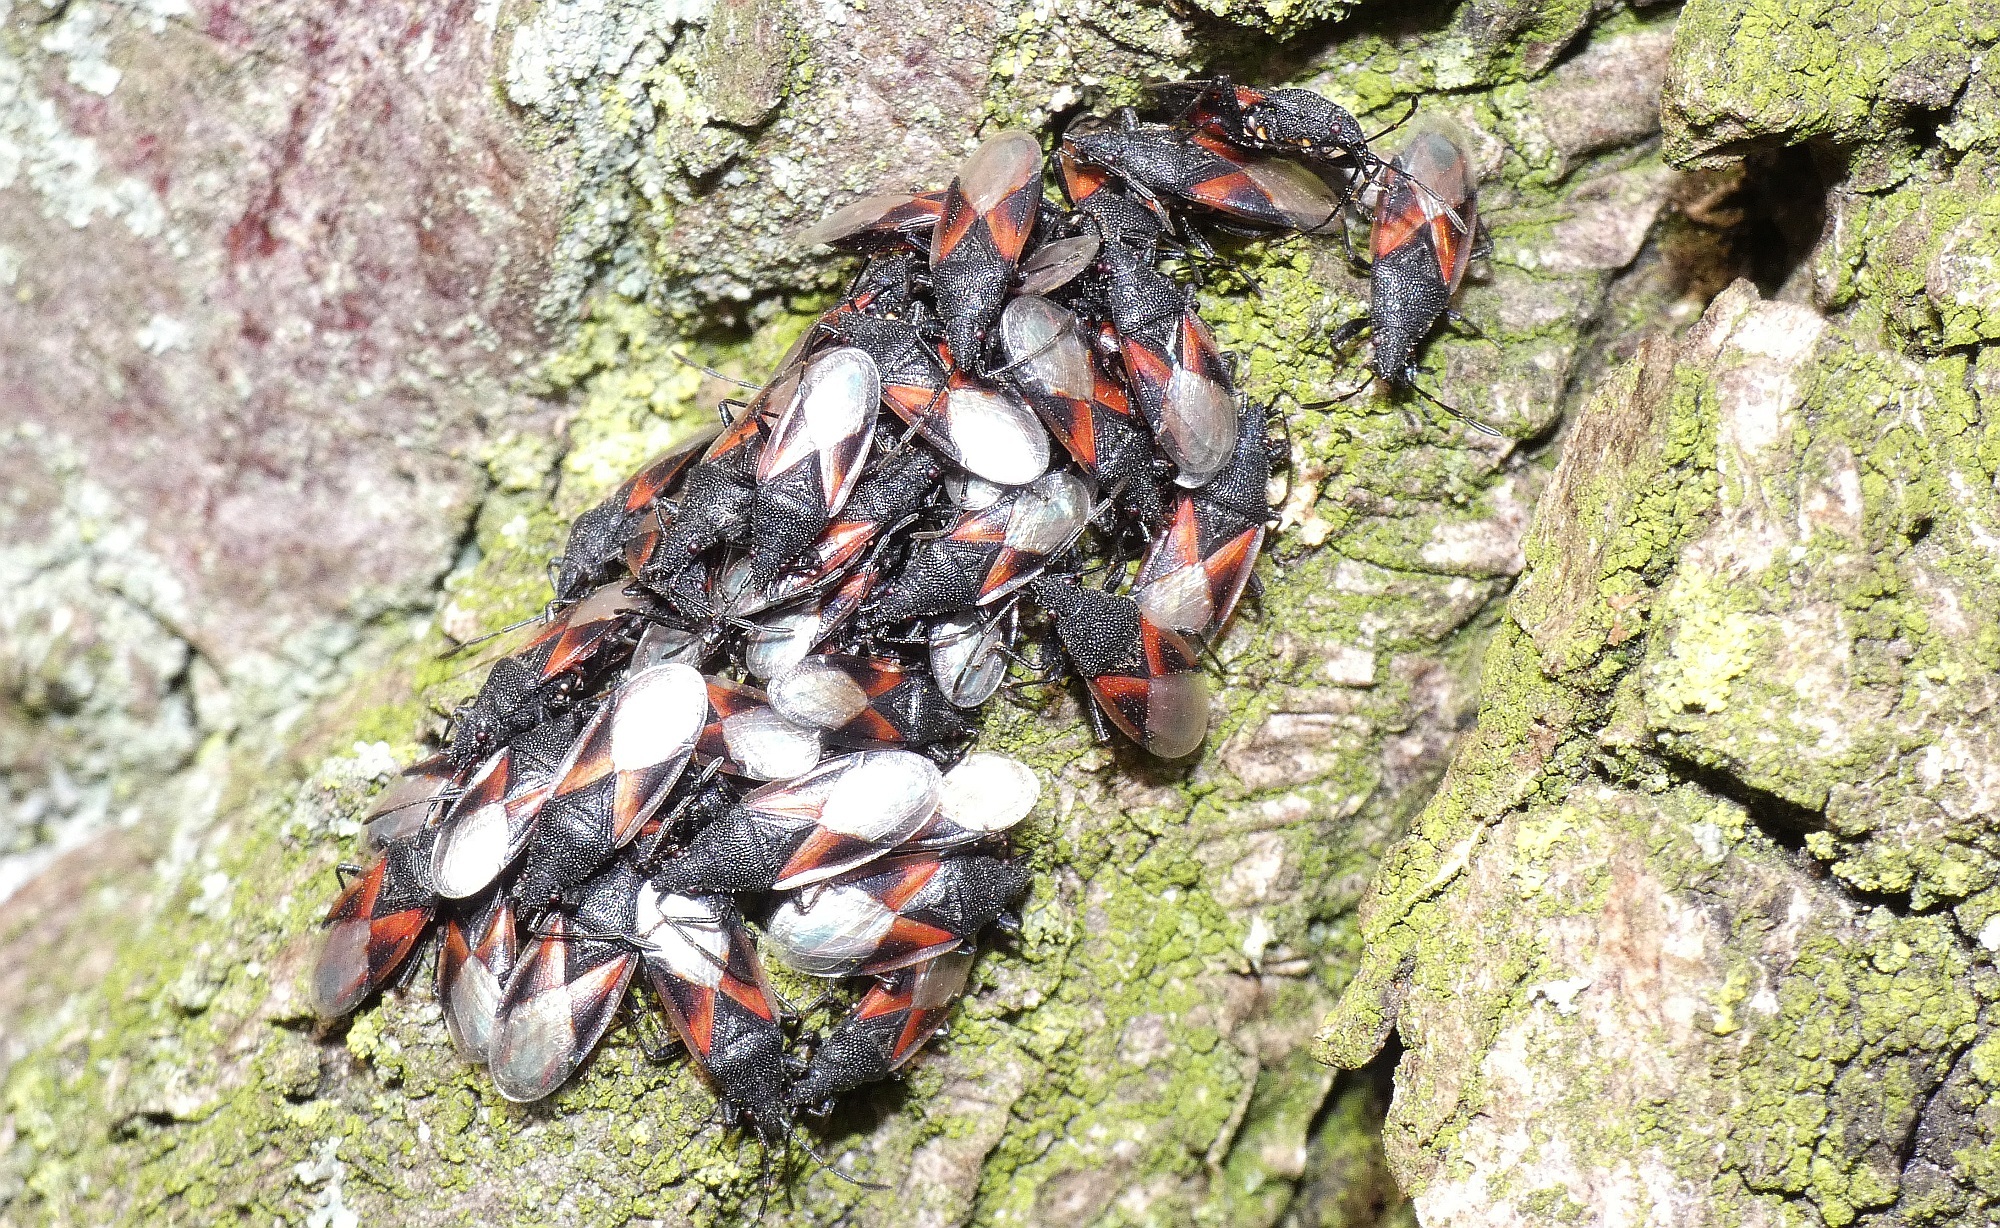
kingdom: Animalia
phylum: Arthropoda
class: Insecta
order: Hemiptera
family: Oxycarenidae
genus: Oxycarenus
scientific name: Oxycarenus lavaterae
